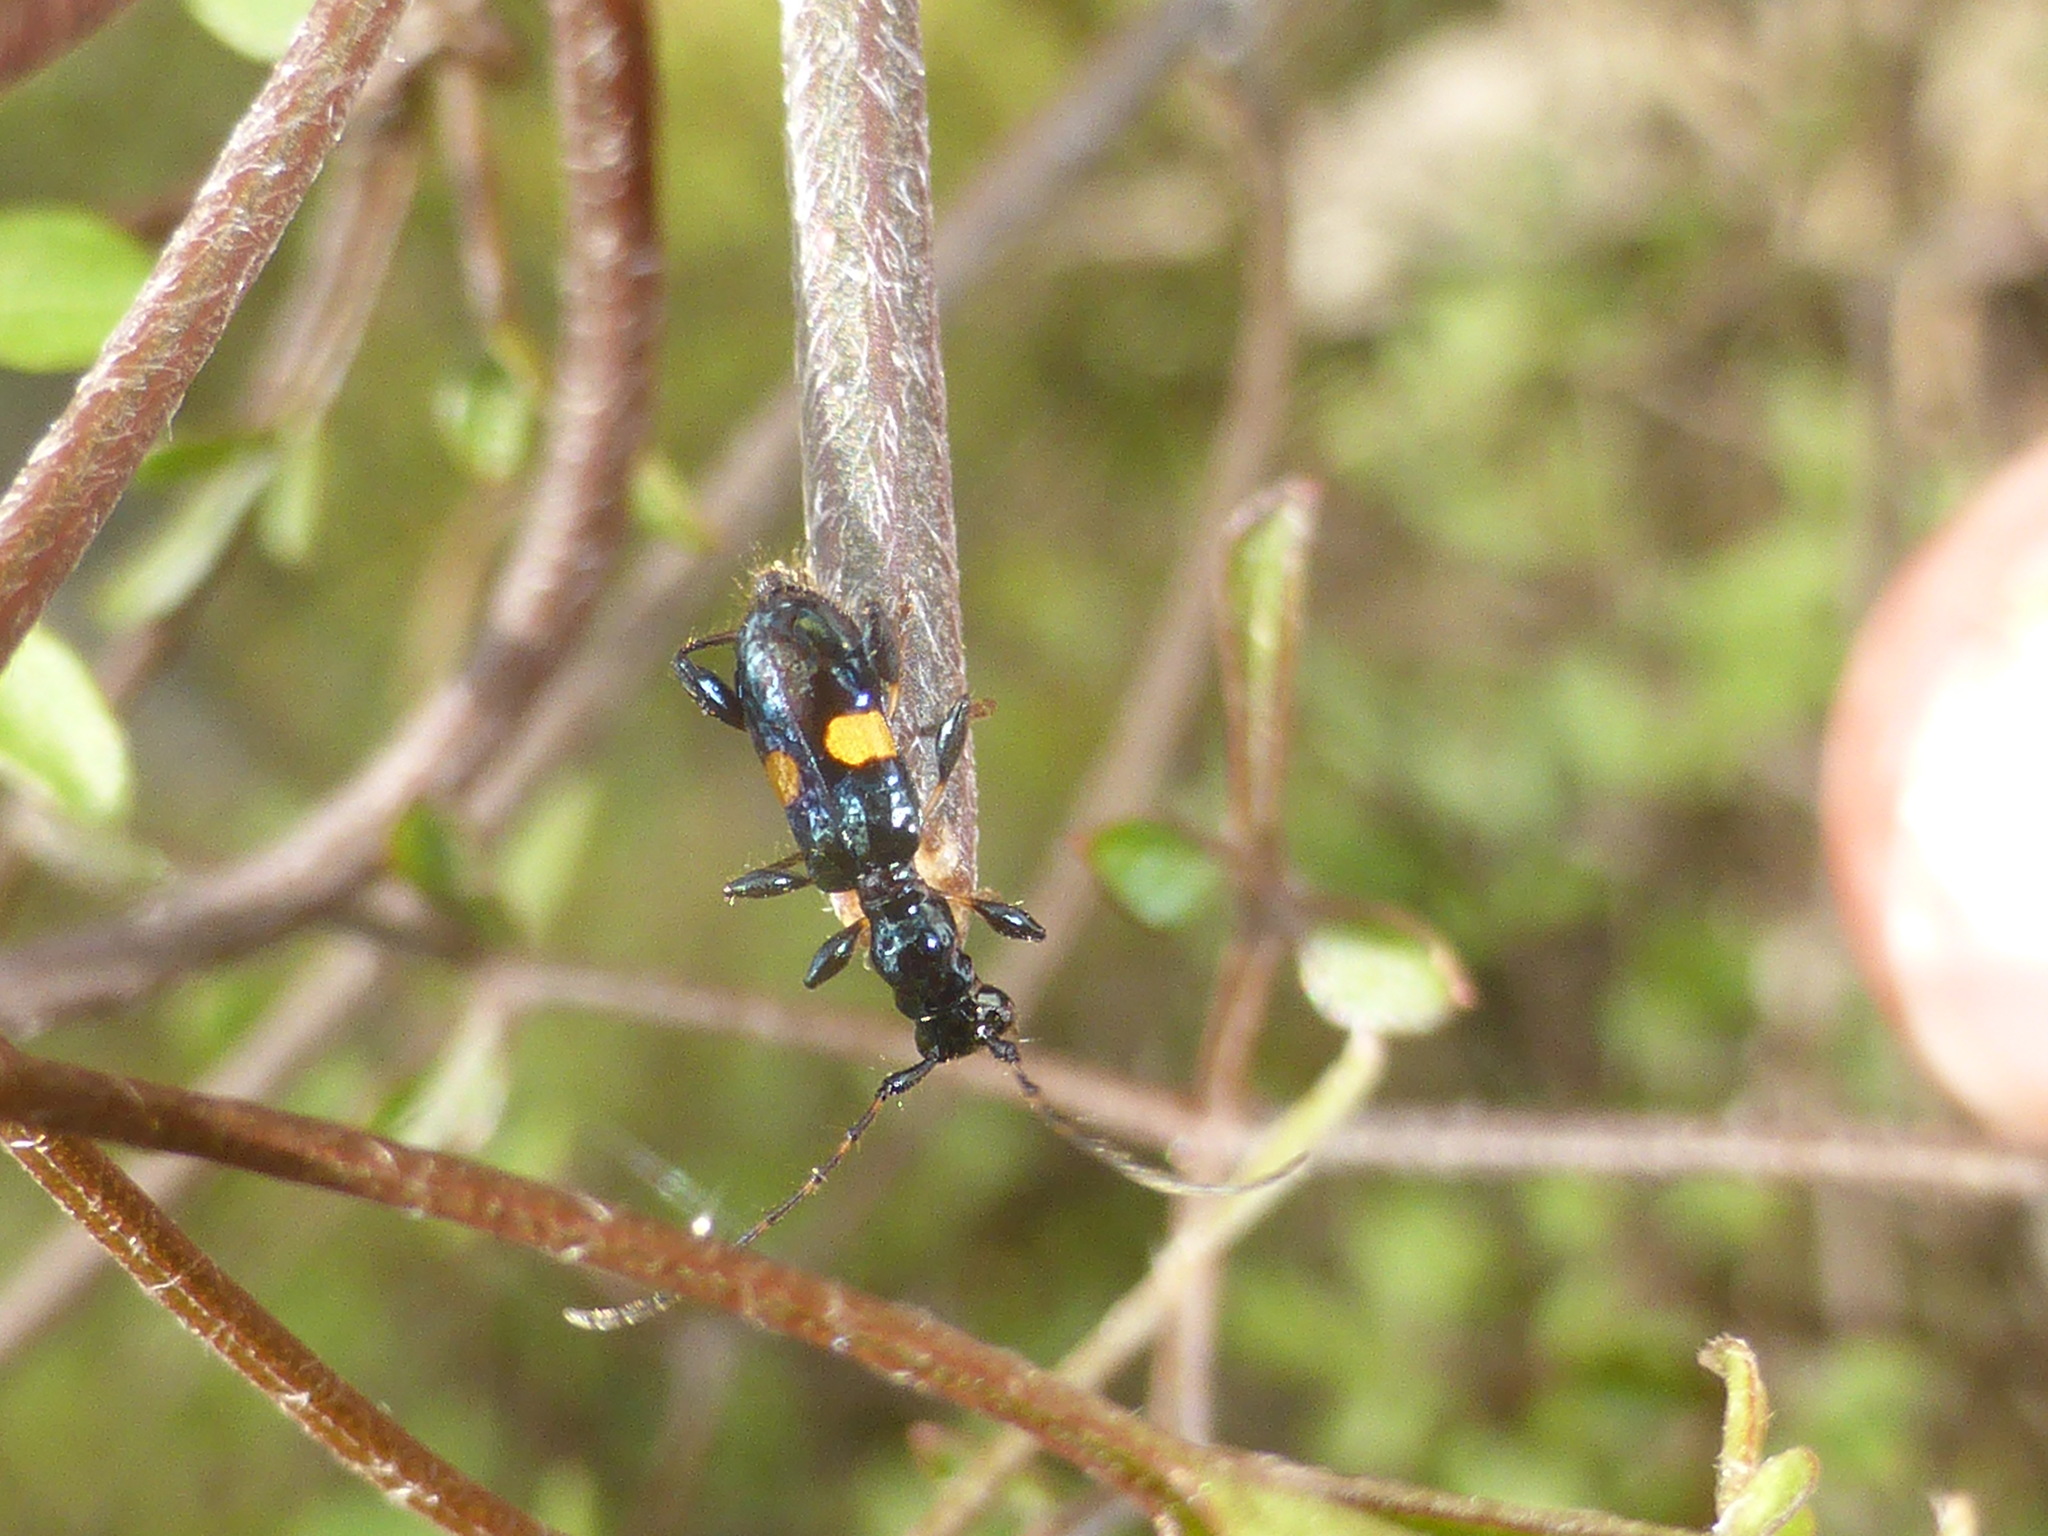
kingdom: Animalia
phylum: Arthropoda
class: Insecta
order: Coleoptera
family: Cerambycidae
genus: Zorion
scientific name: Zorion guttigerum
